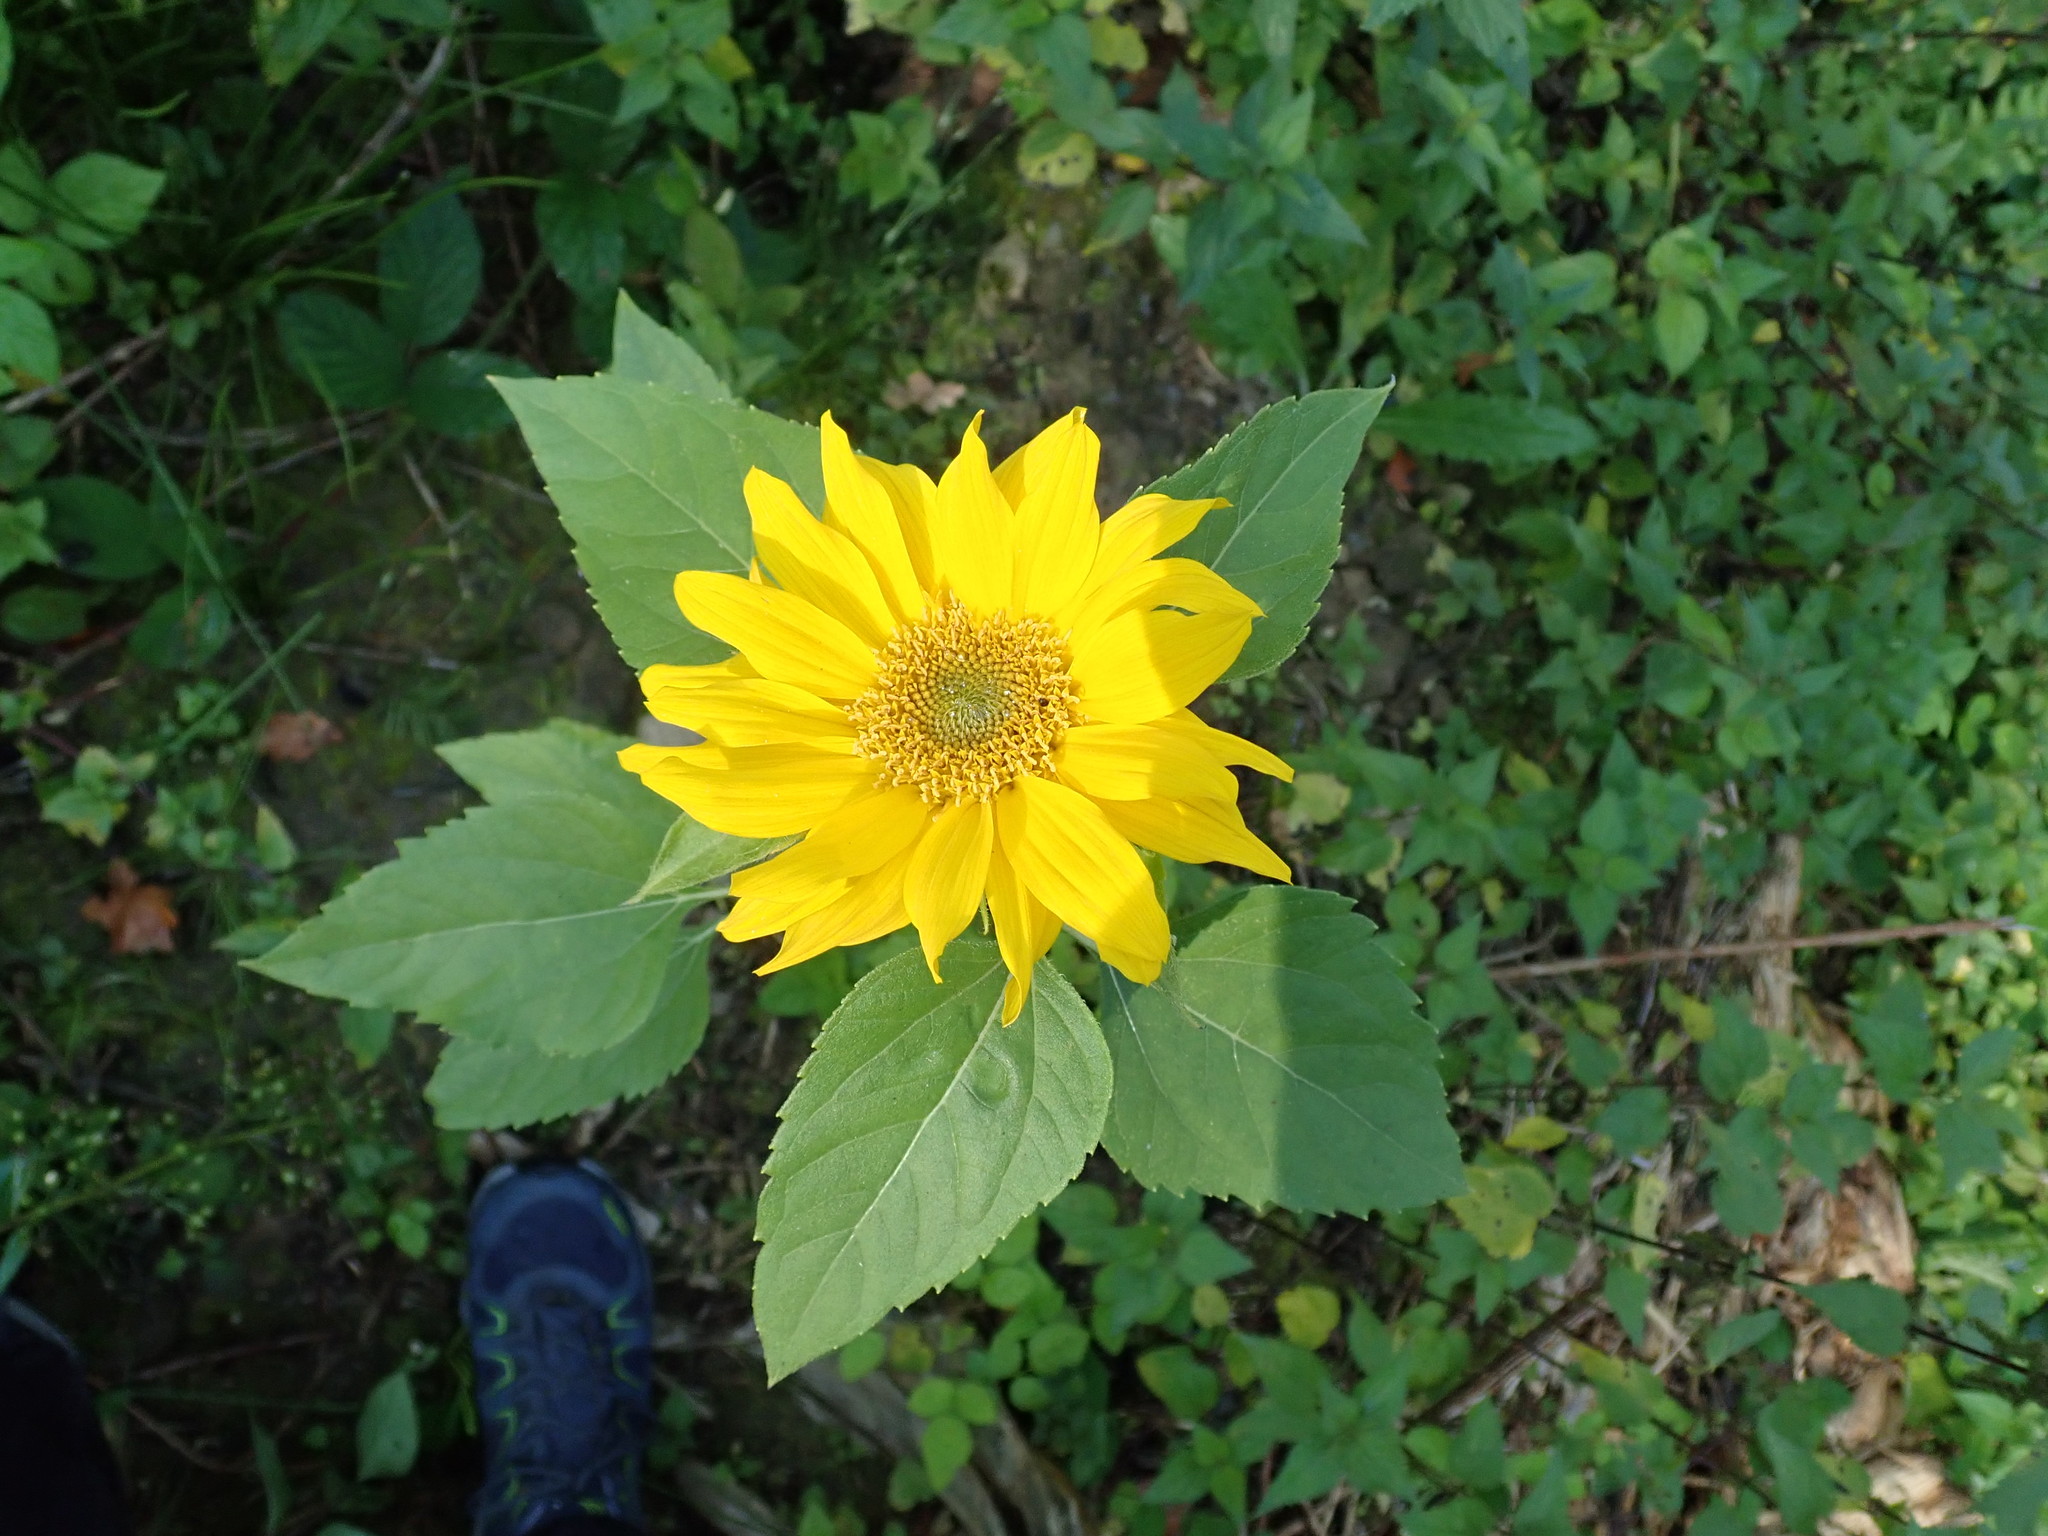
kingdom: Plantae
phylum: Tracheophyta
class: Magnoliopsida
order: Asterales
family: Asteraceae
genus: Helianthus
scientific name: Helianthus annuus
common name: Sunflower
